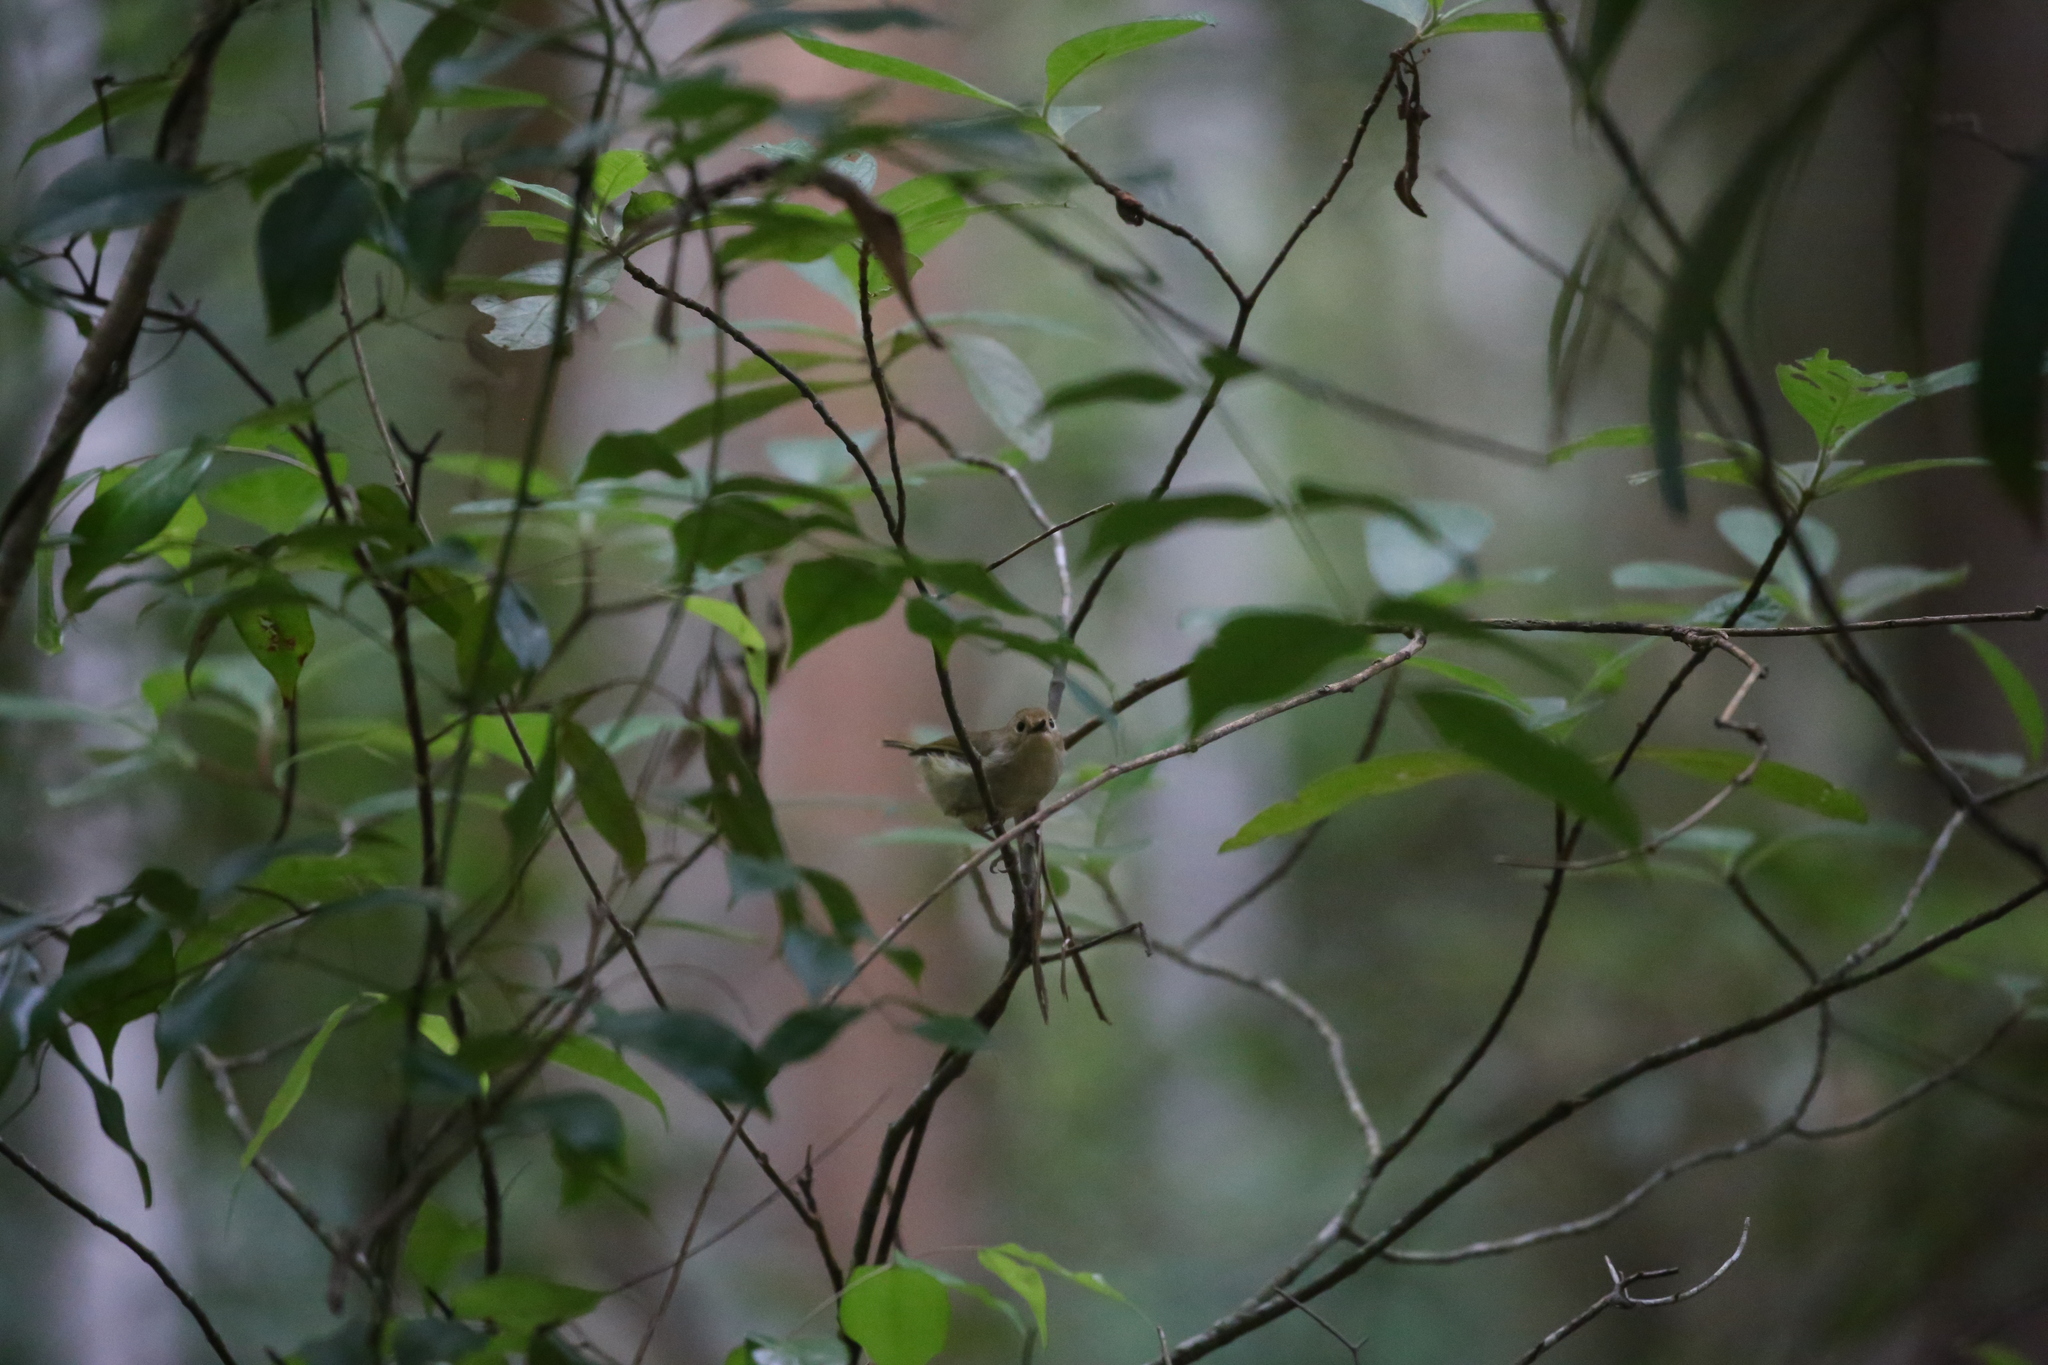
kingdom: Animalia
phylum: Chordata
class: Aves
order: Passeriformes
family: Acanthizidae
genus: Sericornis
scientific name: Sericornis magnirostra
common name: Large-billed scrubwren
